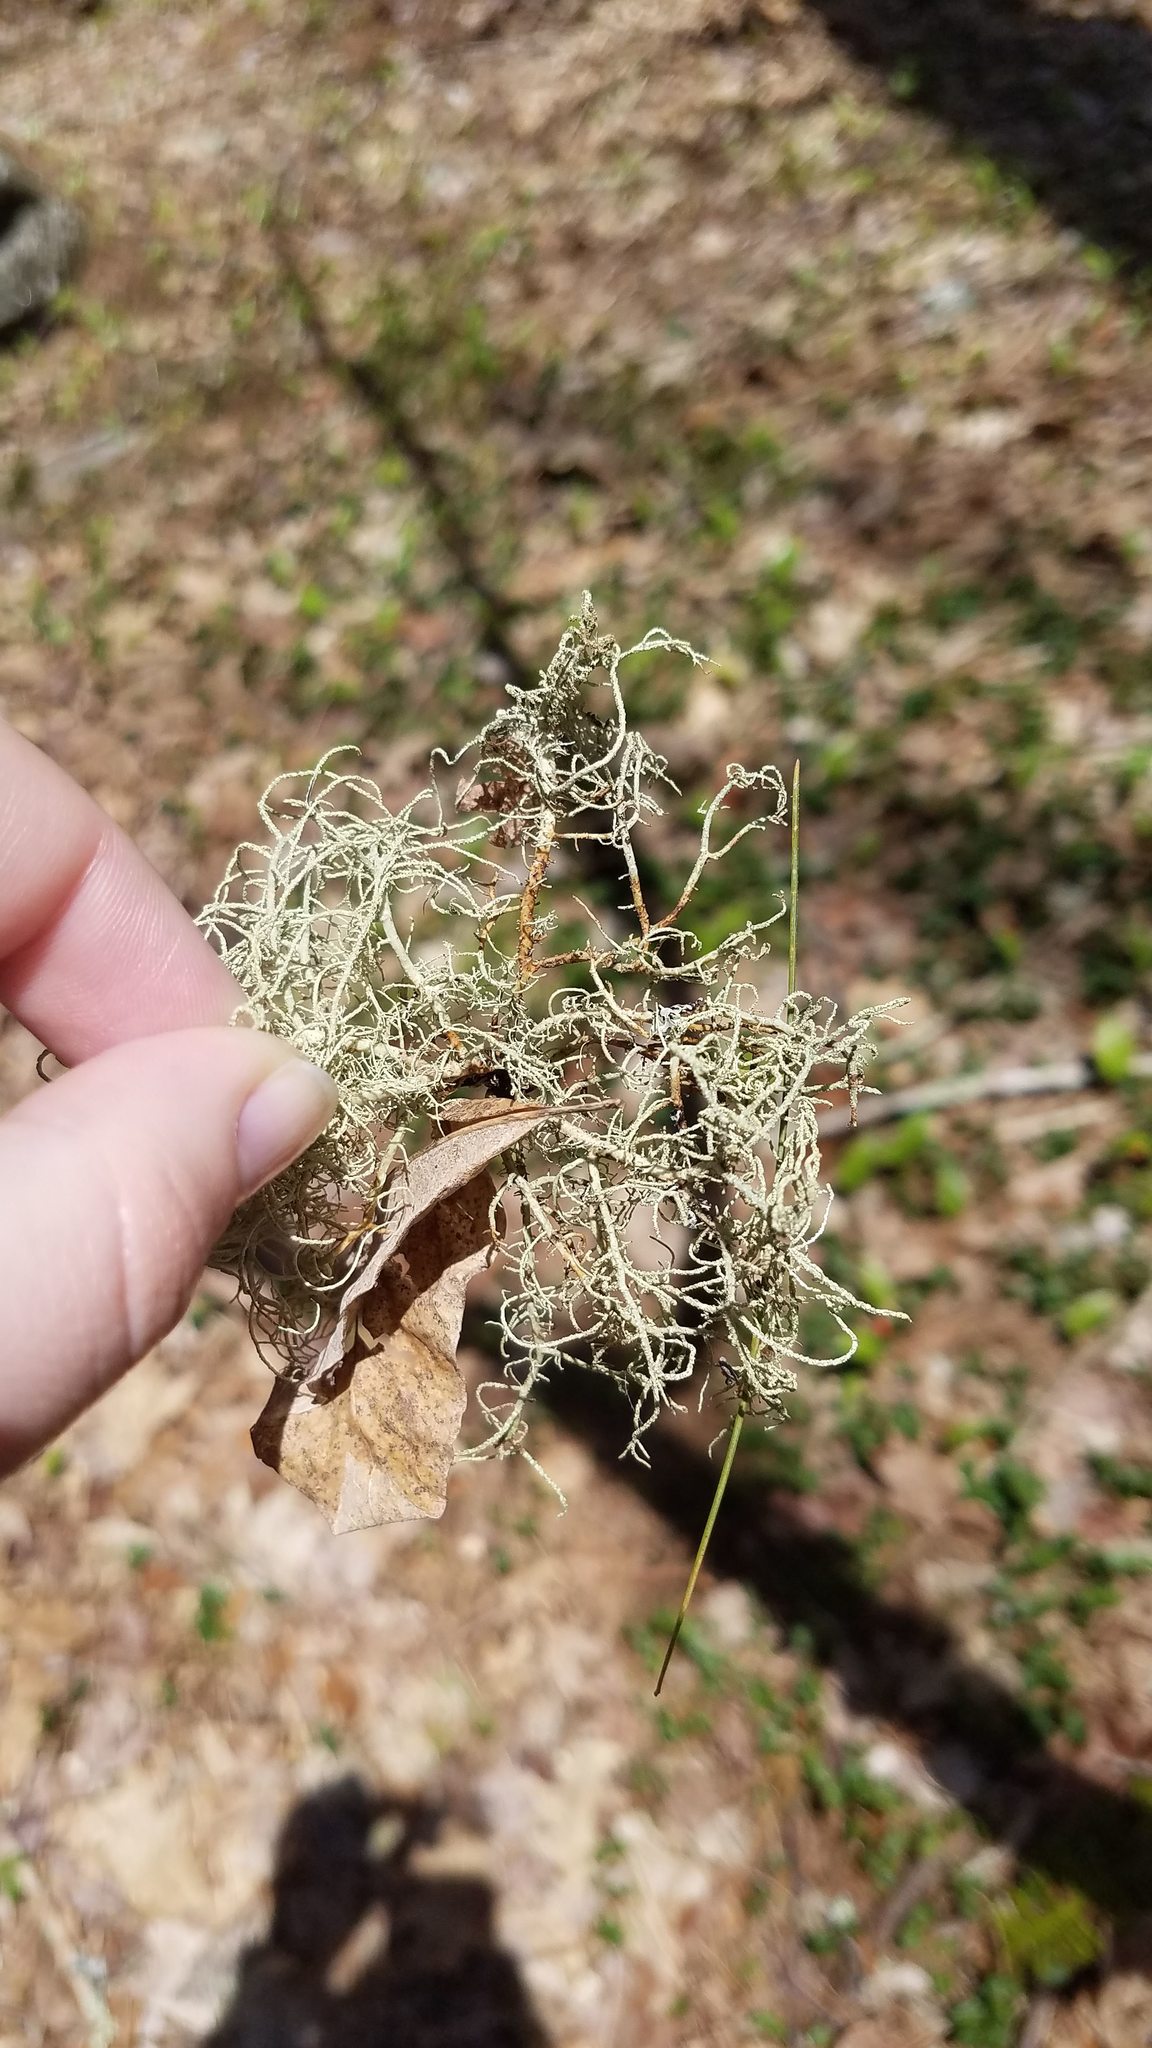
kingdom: Fungi
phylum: Ascomycota
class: Lecanoromycetes
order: Lecanorales
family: Parmeliaceae
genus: Usnea
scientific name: Usnea cornuta
